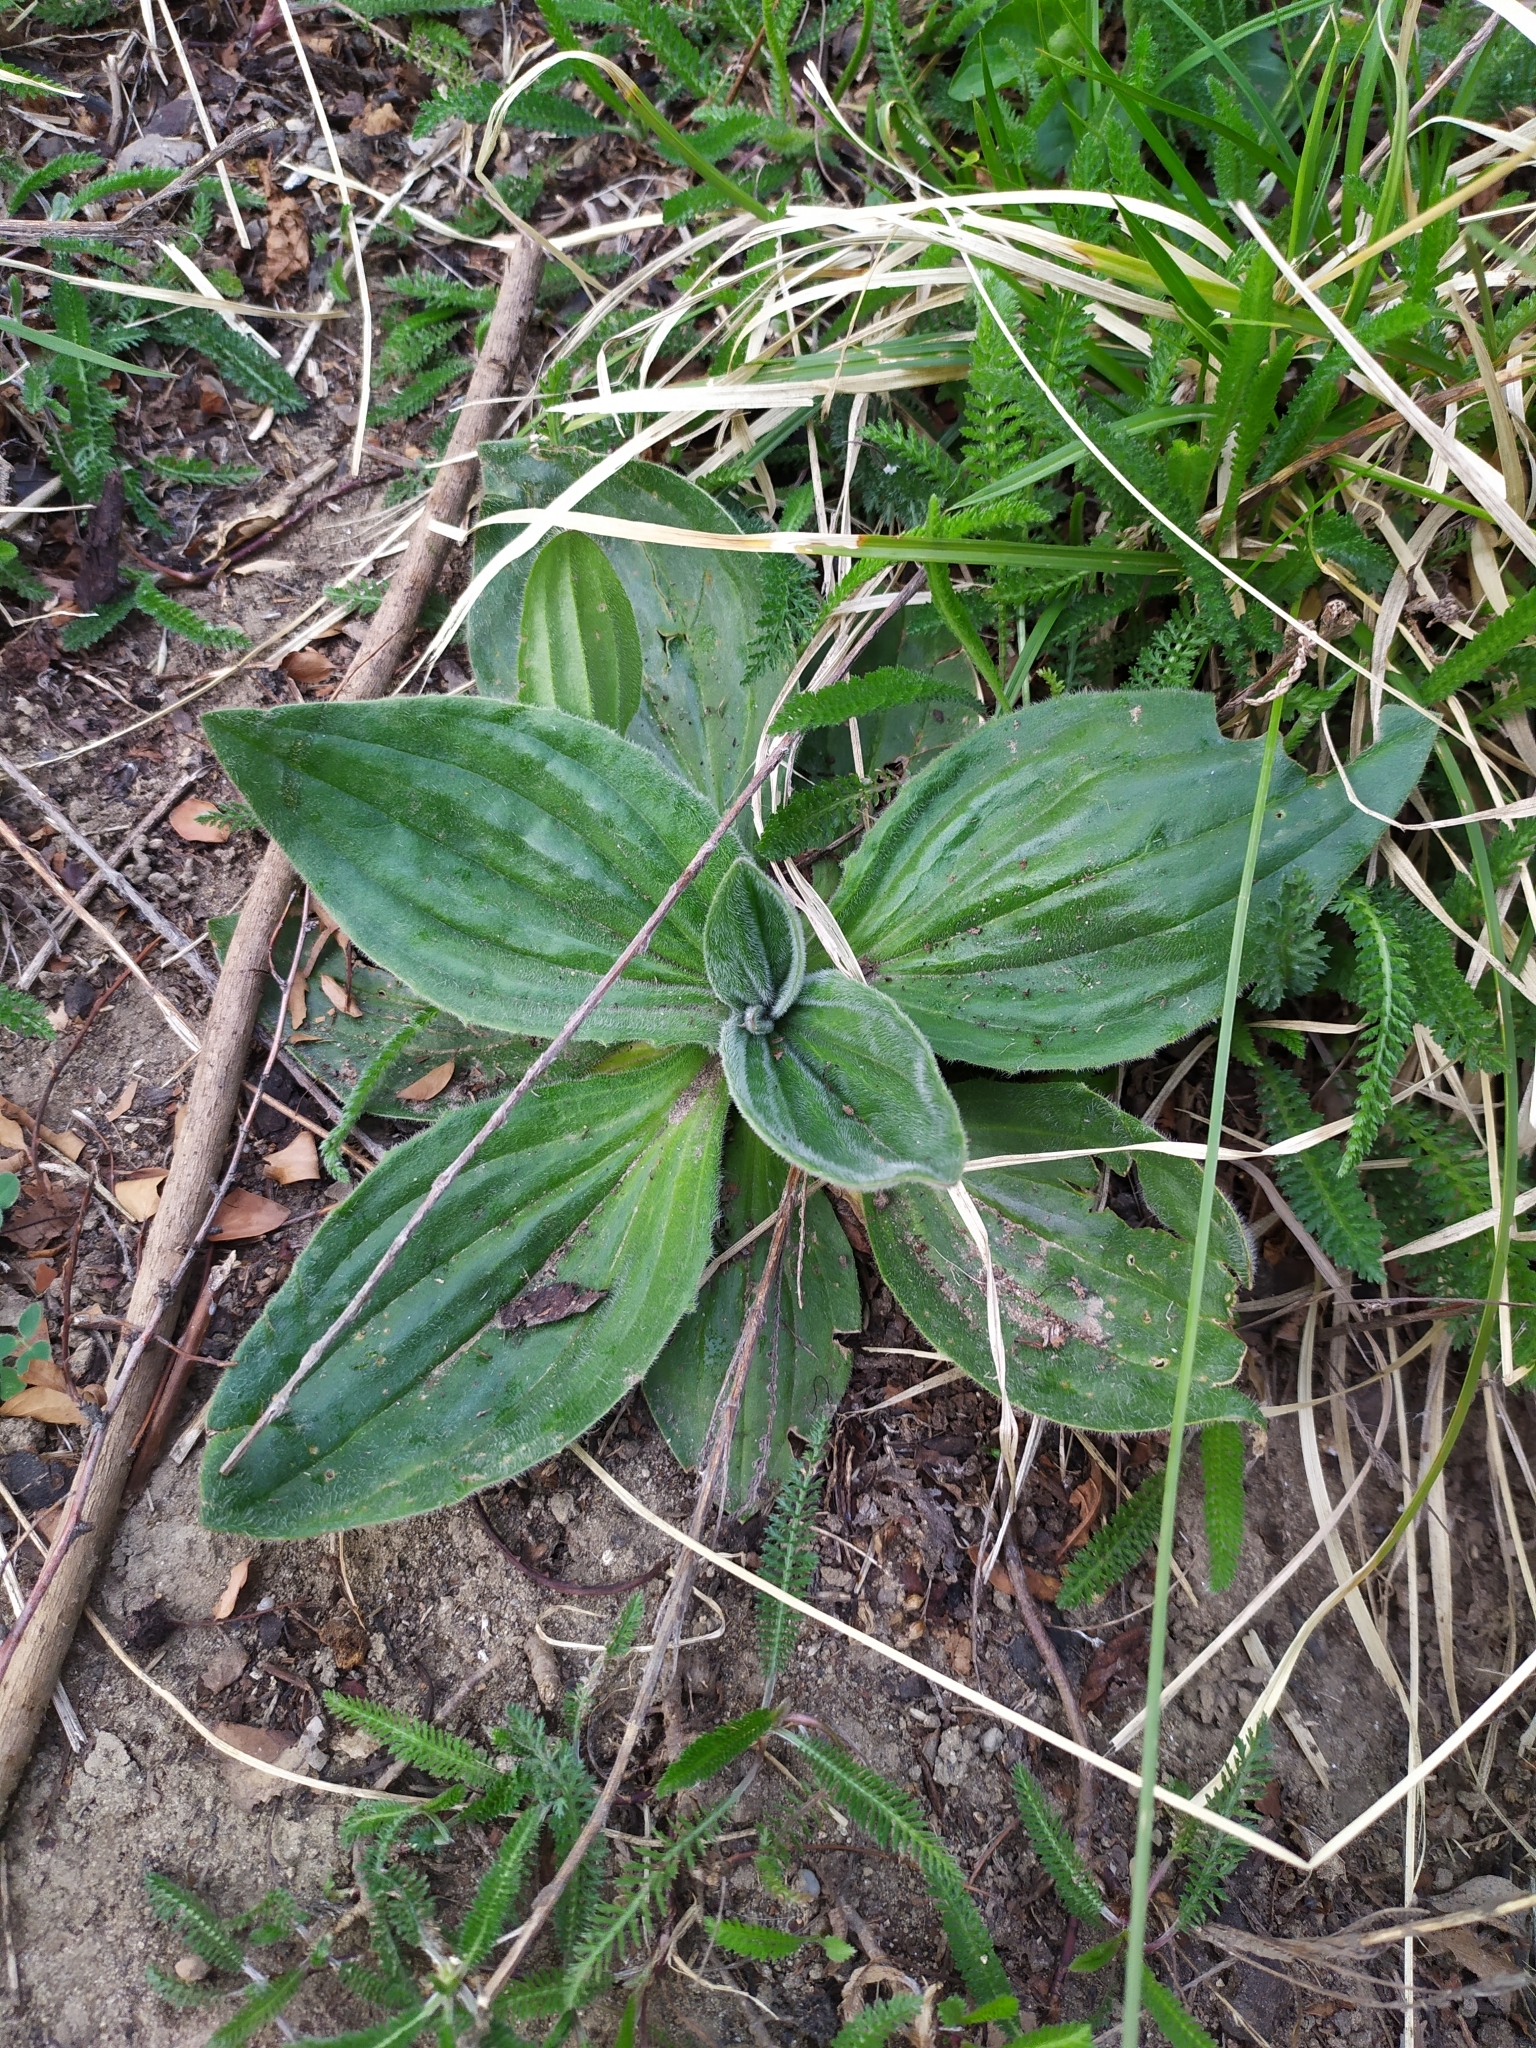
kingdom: Plantae
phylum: Tracheophyta
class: Magnoliopsida
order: Lamiales
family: Plantaginaceae
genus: Plantago
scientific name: Plantago media
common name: Hoary plantain
